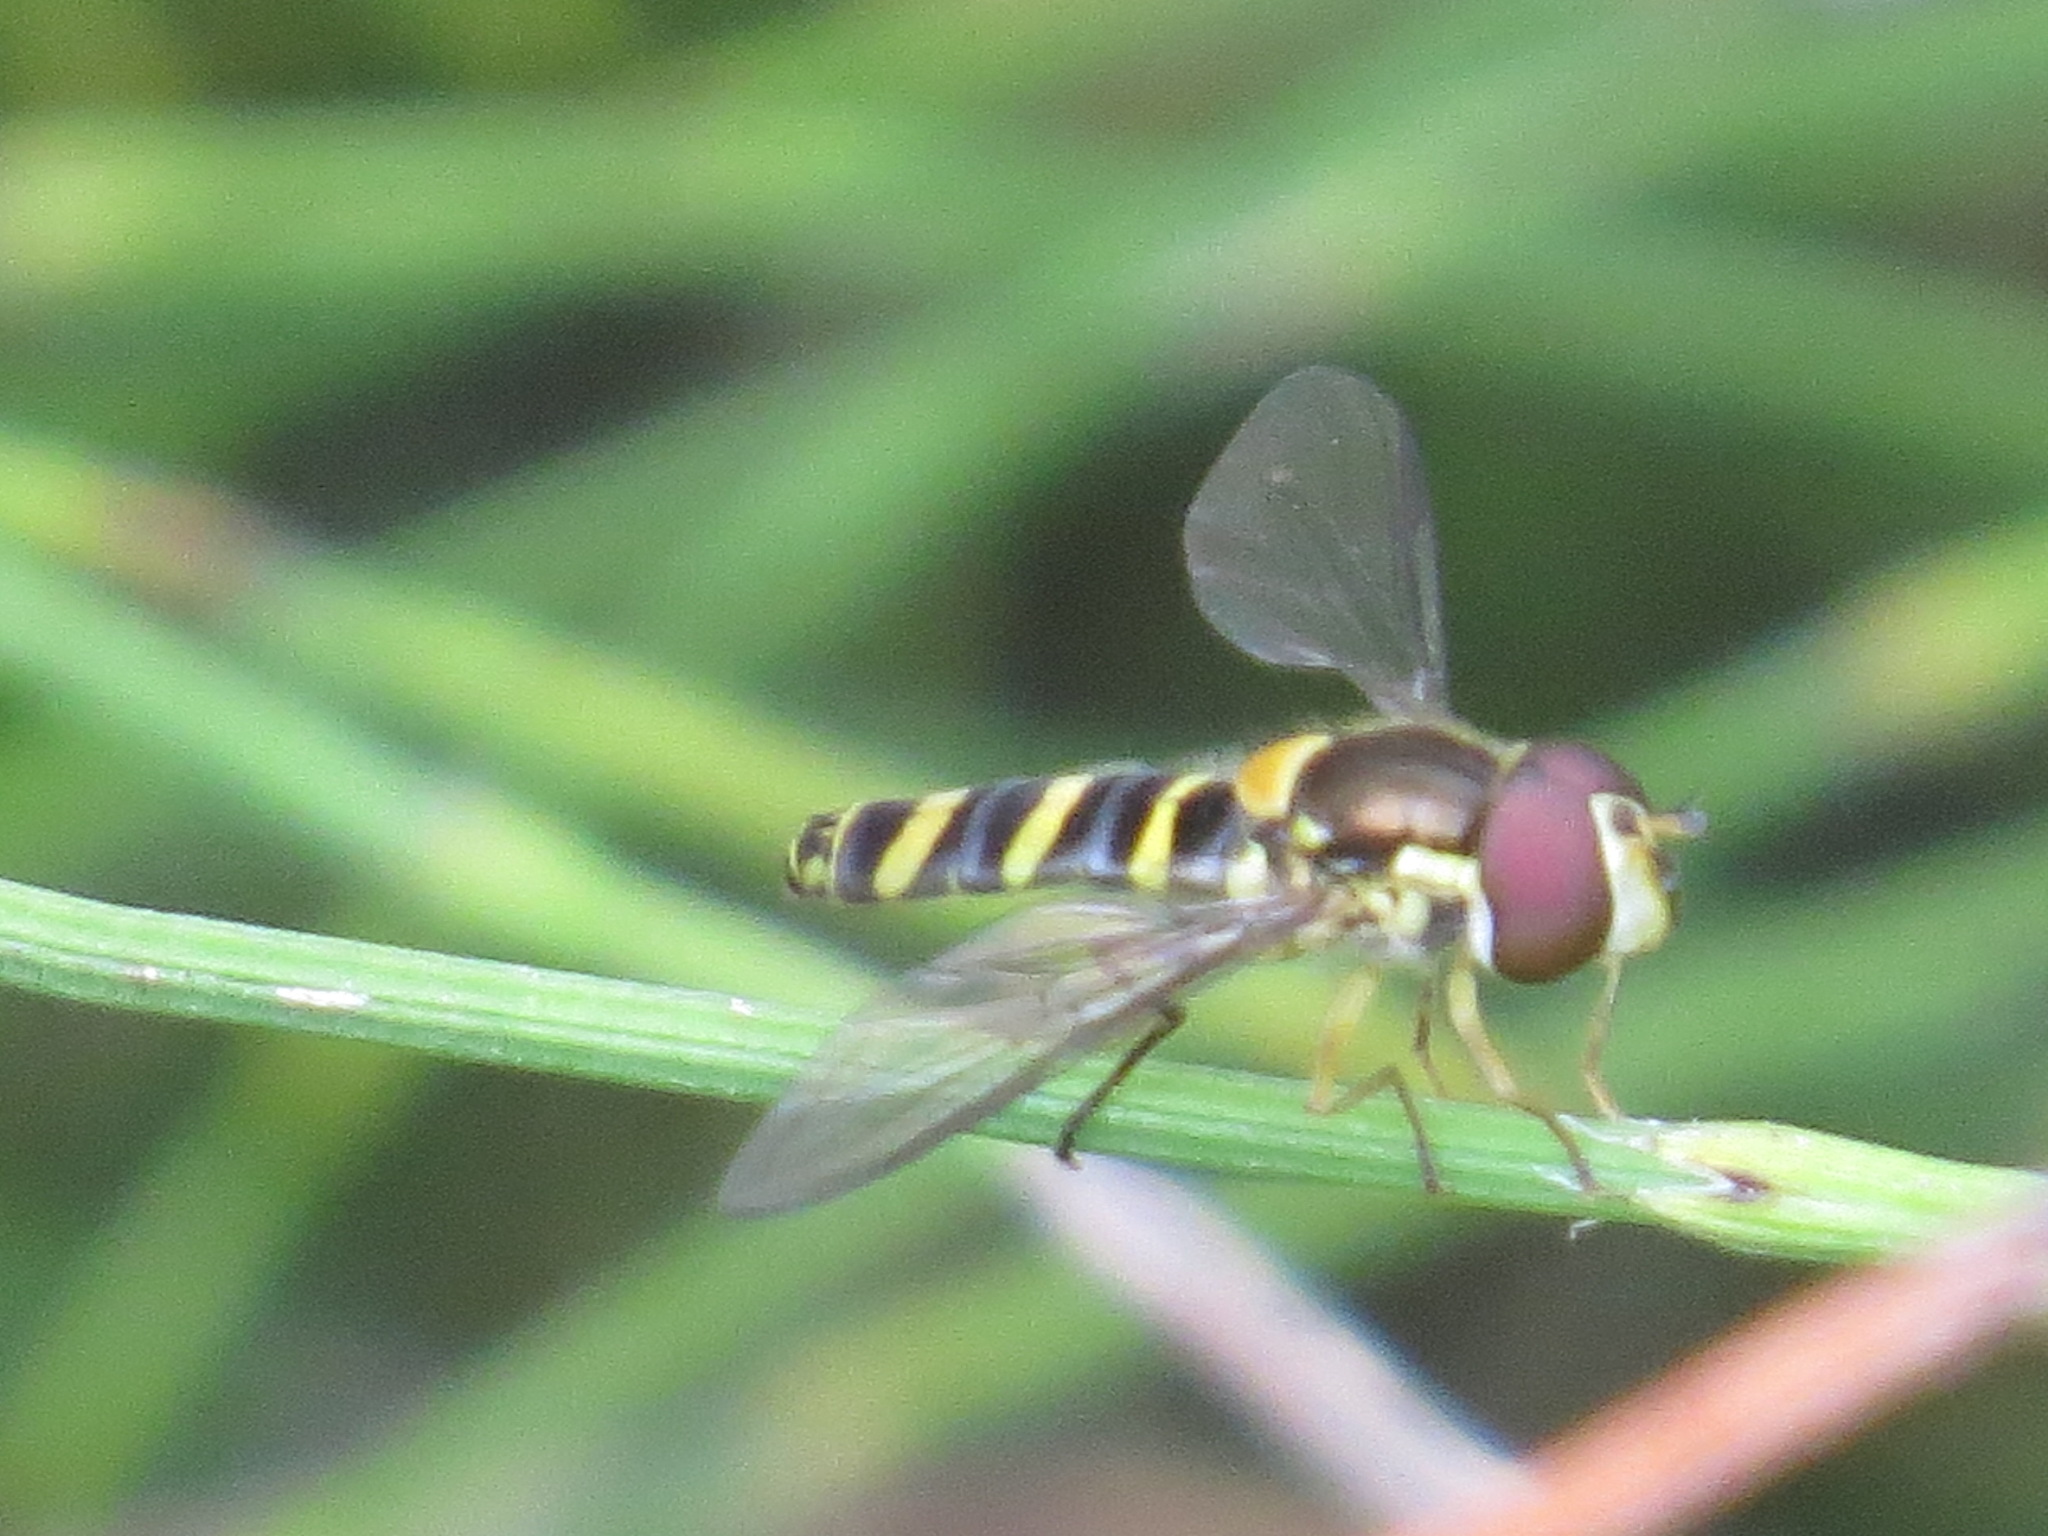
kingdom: Animalia
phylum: Arthropoda
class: Insecta
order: Diptera
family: Syrphidae
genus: Fazia
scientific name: Fazia micrura
